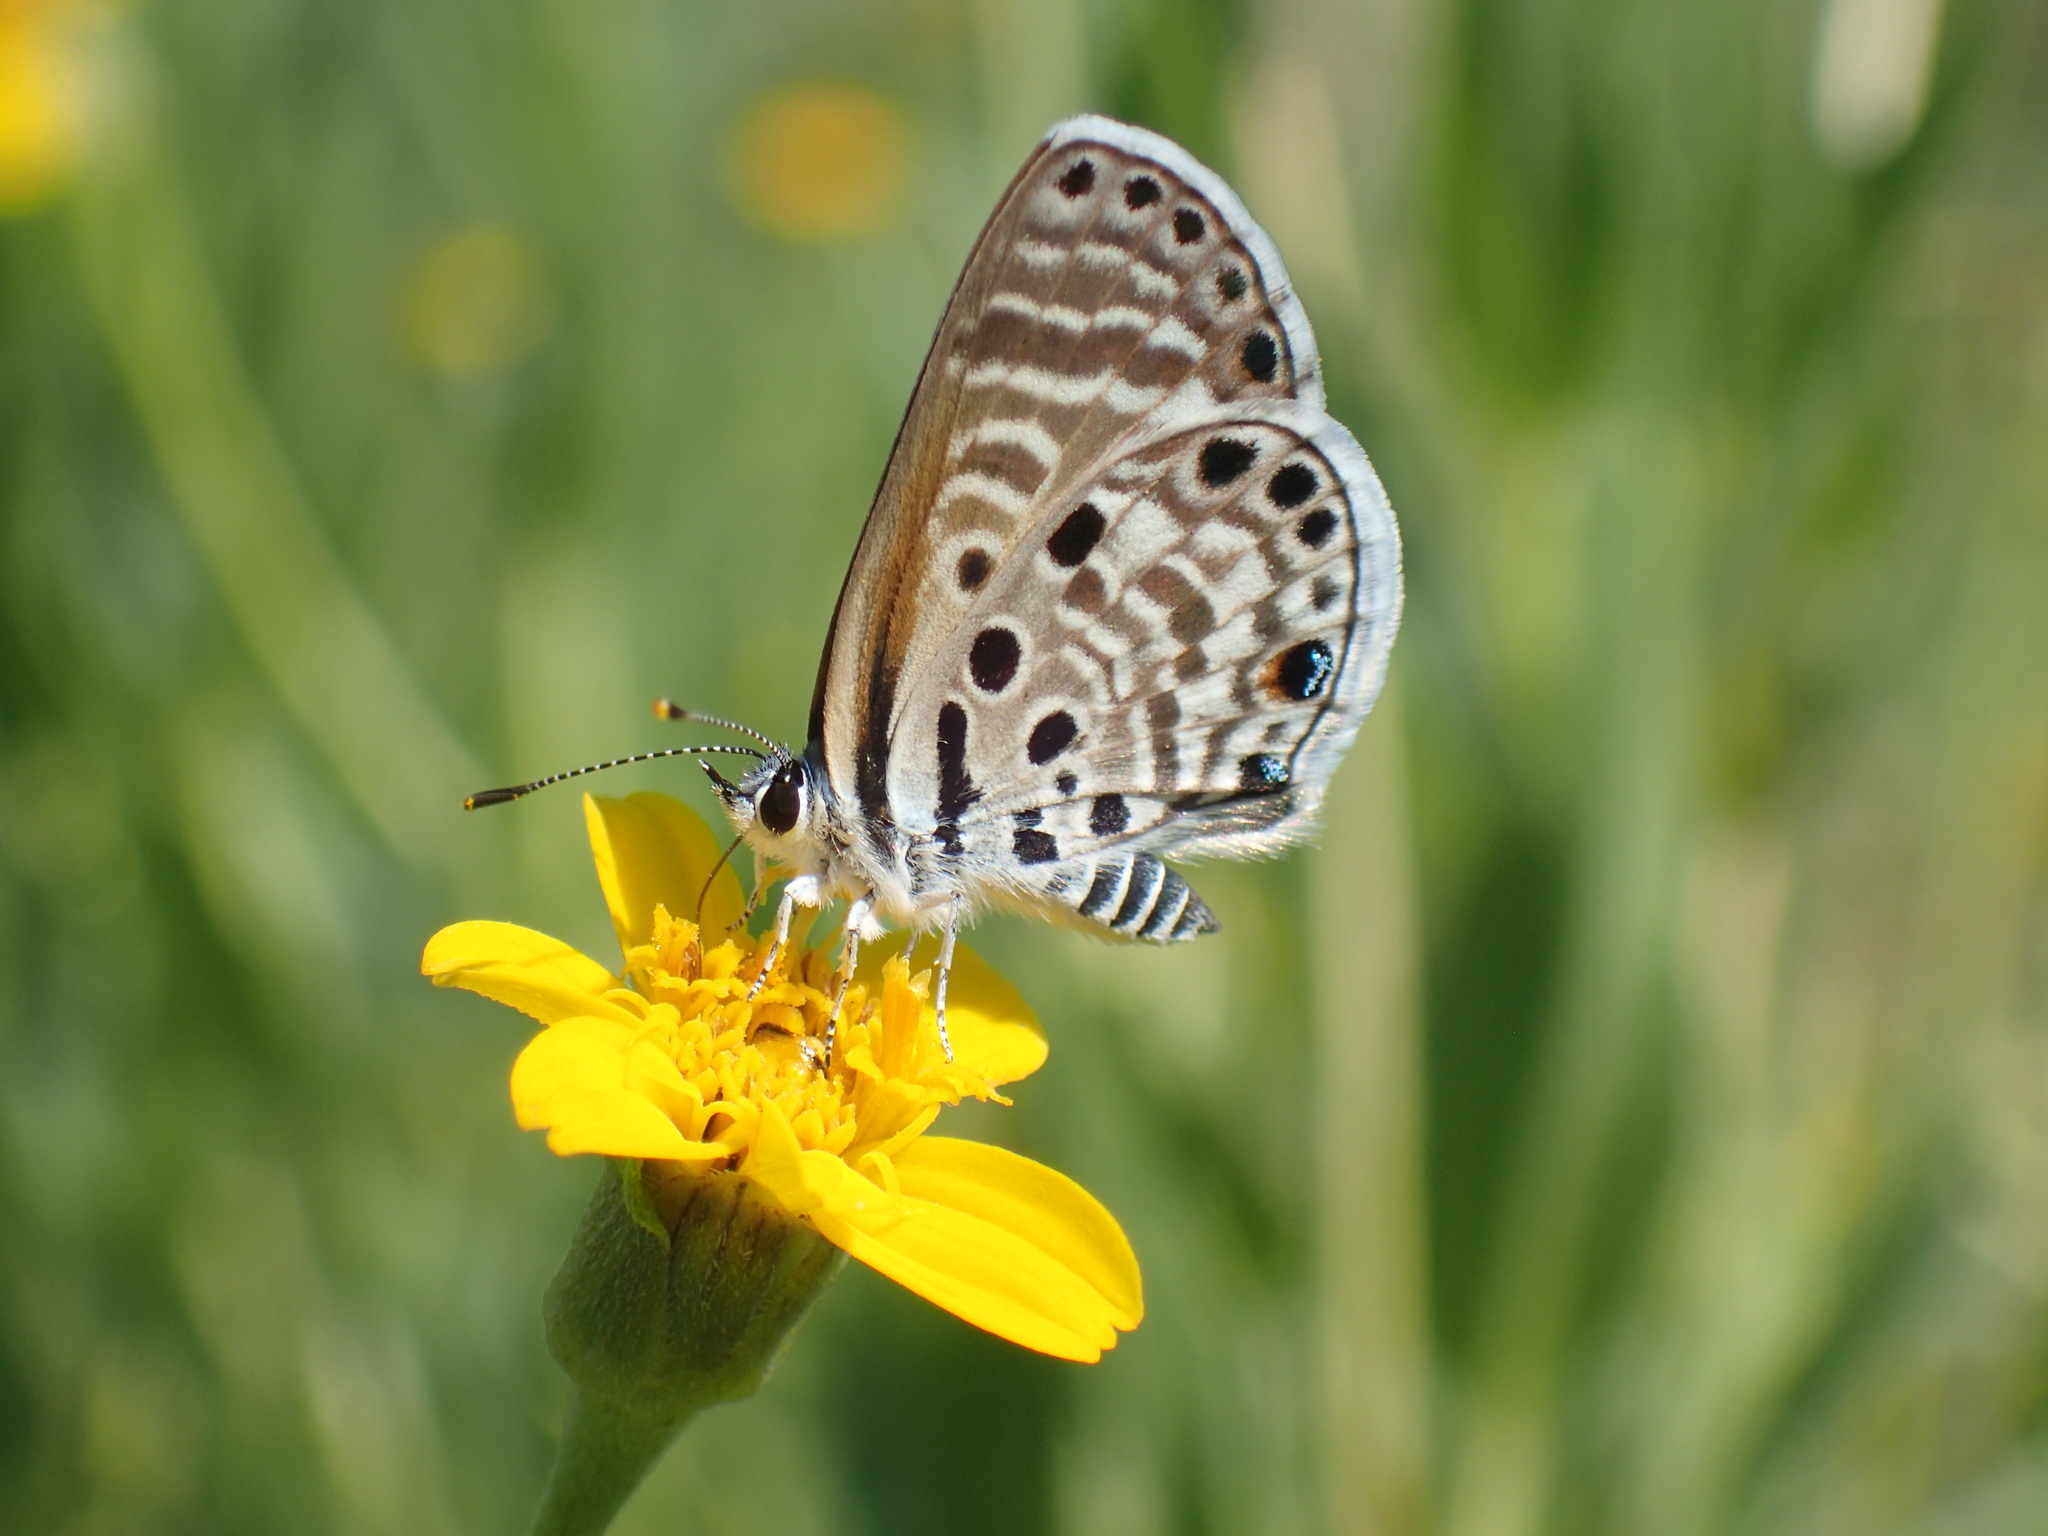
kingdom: Animalia
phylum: Arthropoda
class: Insecta
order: Lepidoptera
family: Lycaenidae
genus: Azanus
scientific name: Azanus jesous
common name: African babul blue
